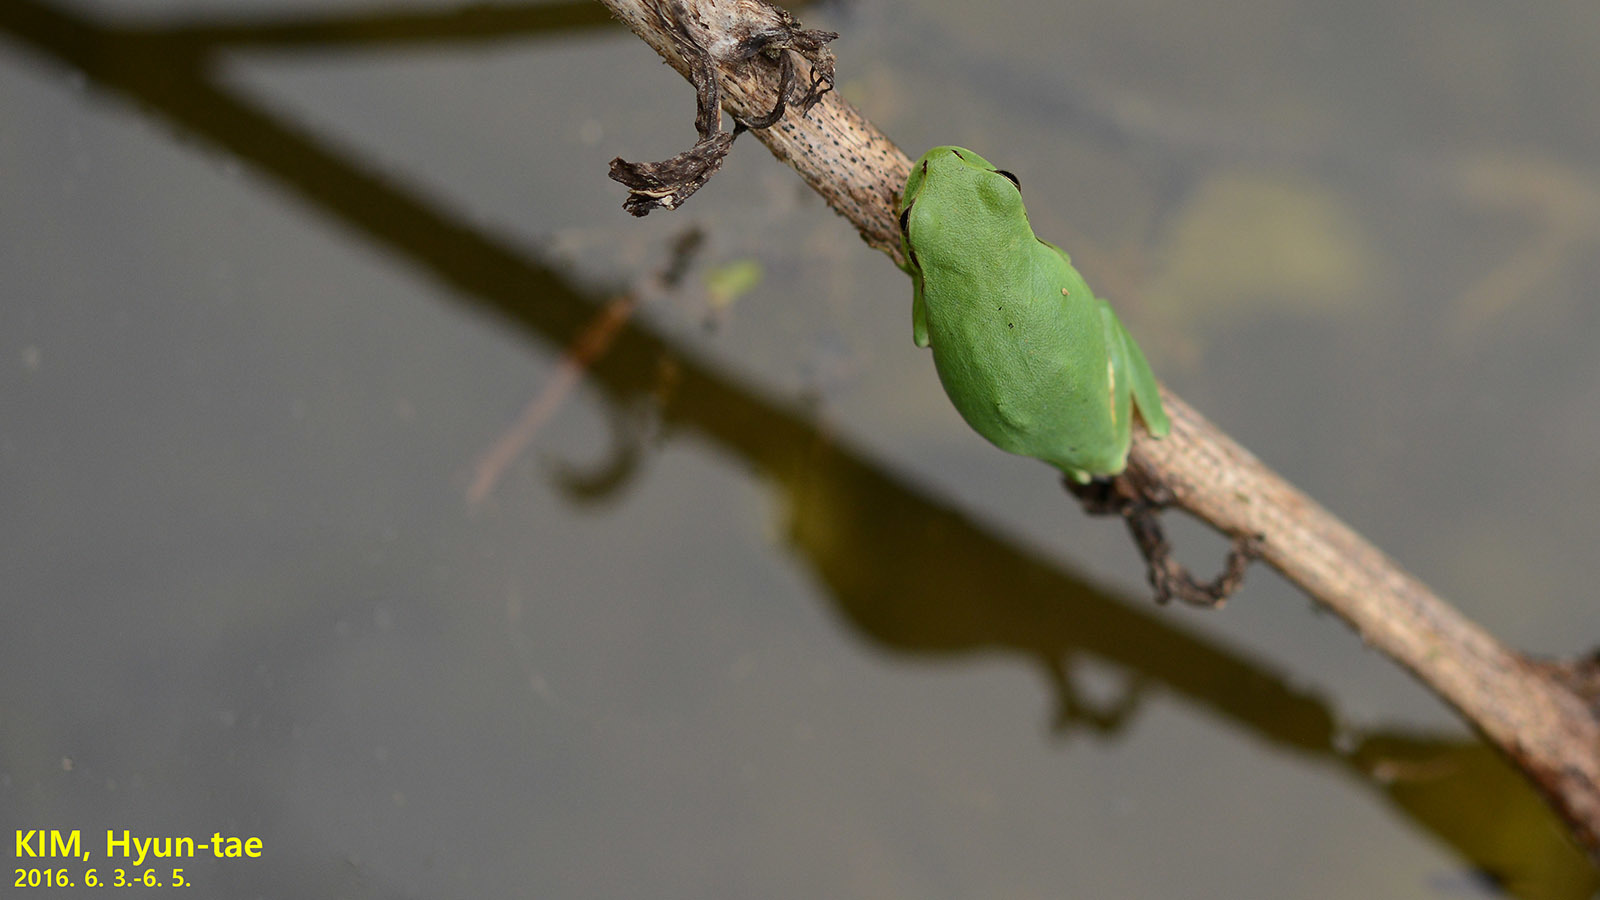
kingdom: Animalia
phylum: Chordata
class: Amphibia
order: Anura
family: Hylidae
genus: Dryophytes
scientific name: Dryophytes immaculatus
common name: North china treefrog
